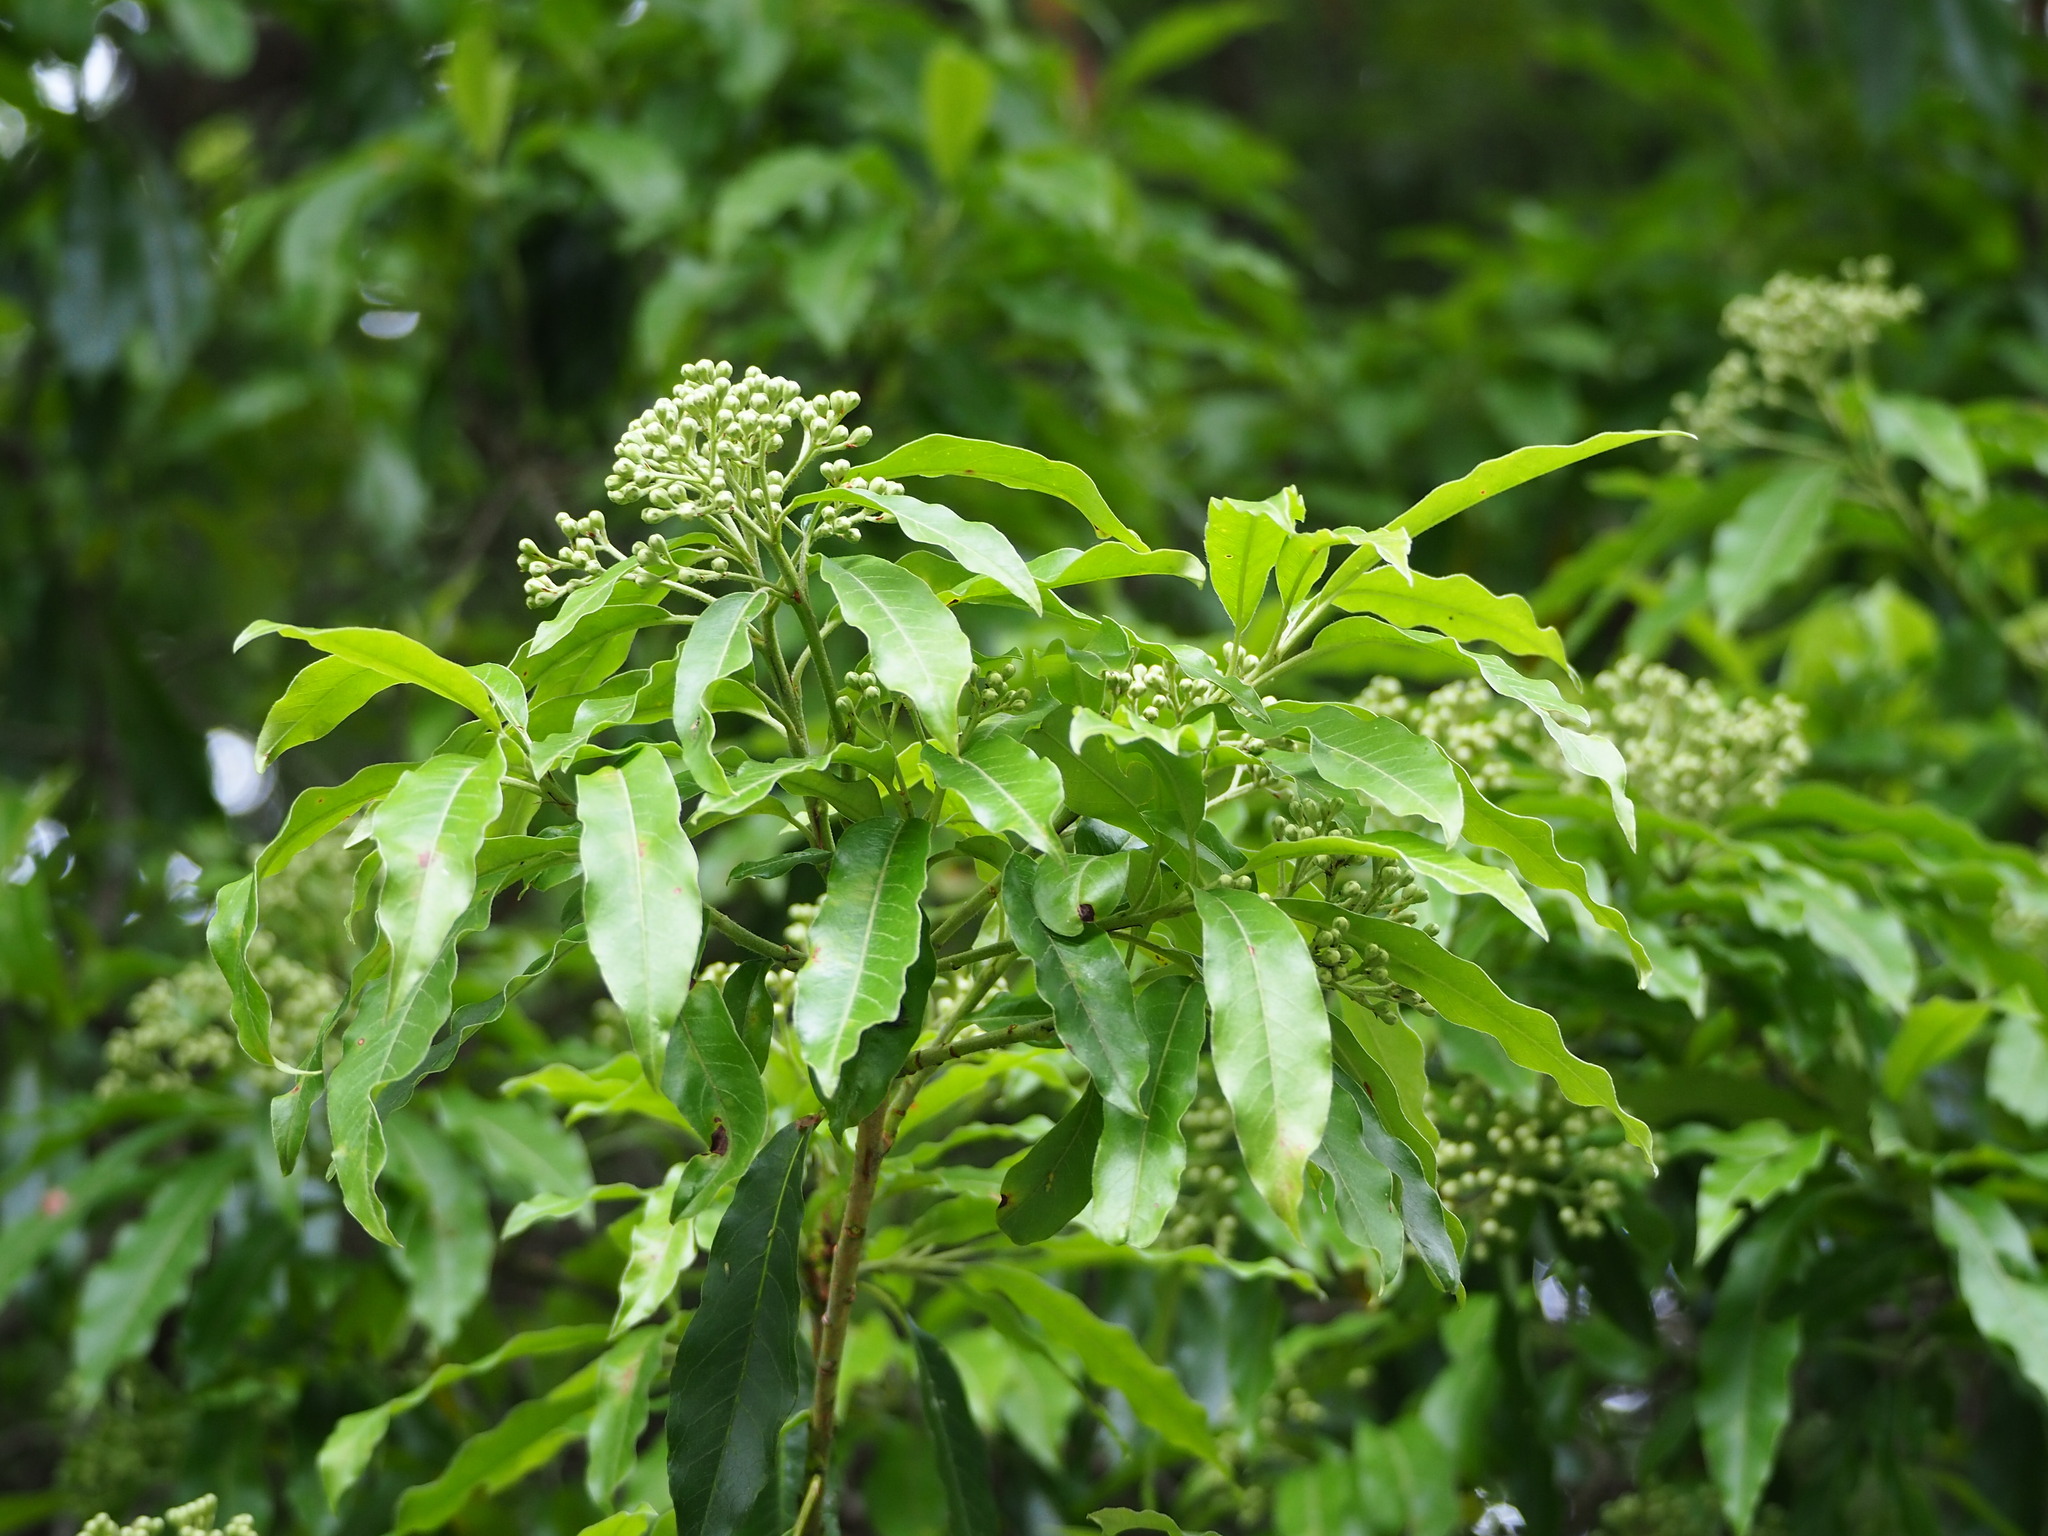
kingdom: Plantae
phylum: Tracheophyta
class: Magnoliopsida
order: Rosales
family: Rosaceae
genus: Stranvaesia
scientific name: Stranvaesia davidiana
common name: Chinese photinia
